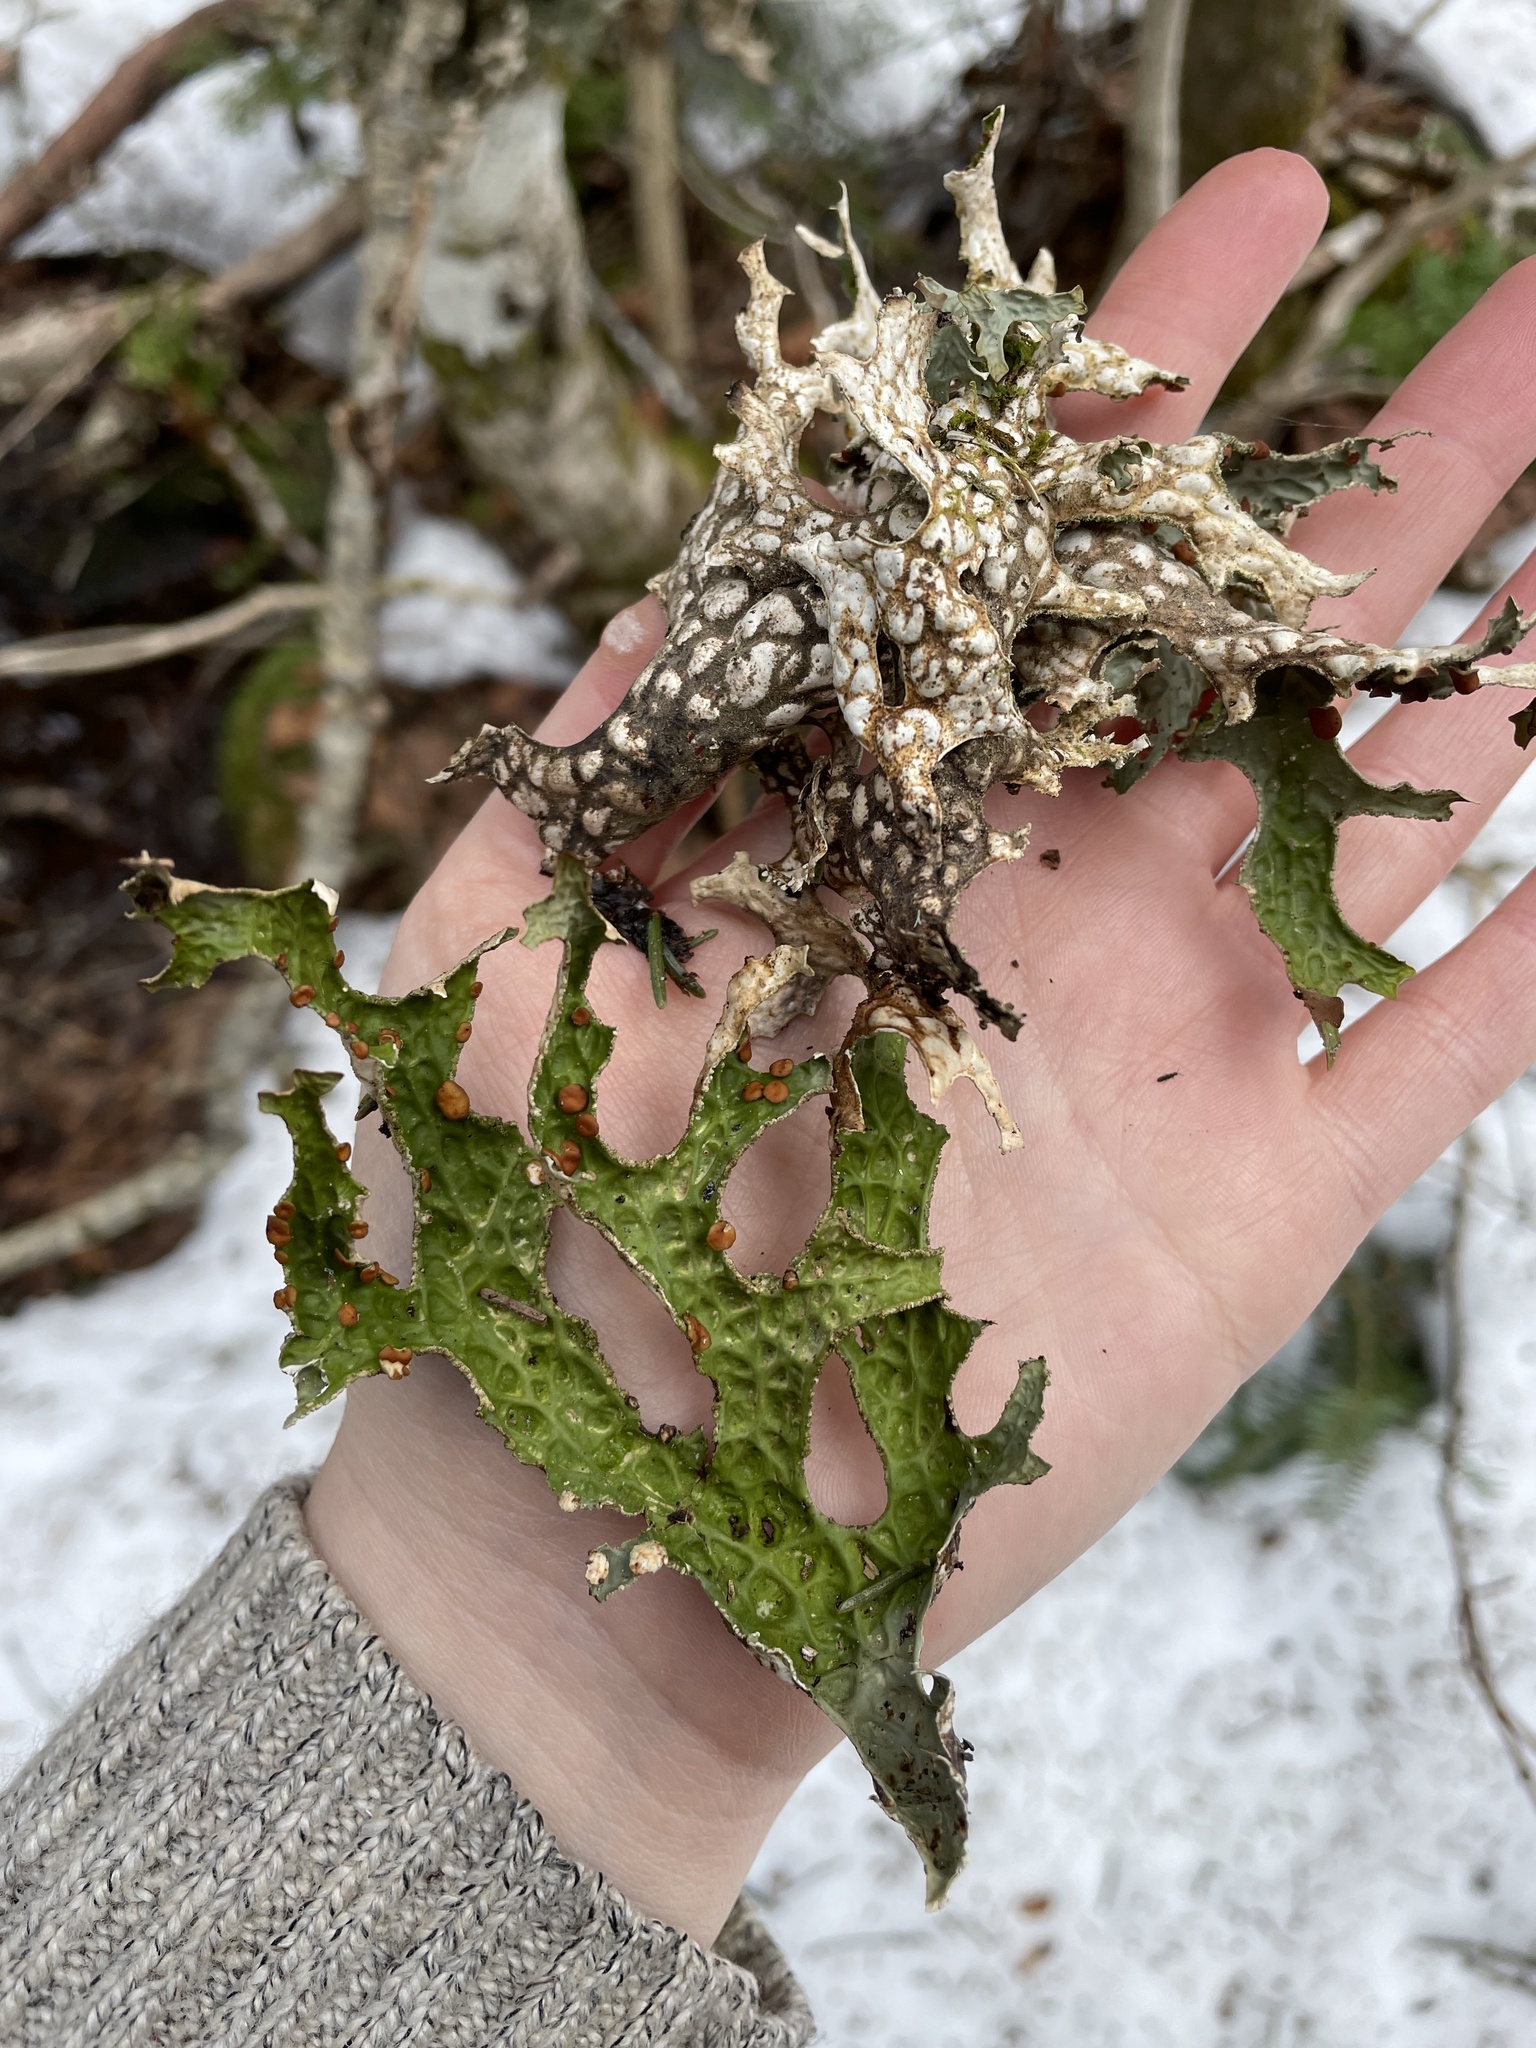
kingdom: Fungi
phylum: Ascomycota
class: Lecanoromycetes
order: Peltigerales
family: Lobariaceae
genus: Lobaria
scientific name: Lobaria pulmonaria
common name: Lungwort
